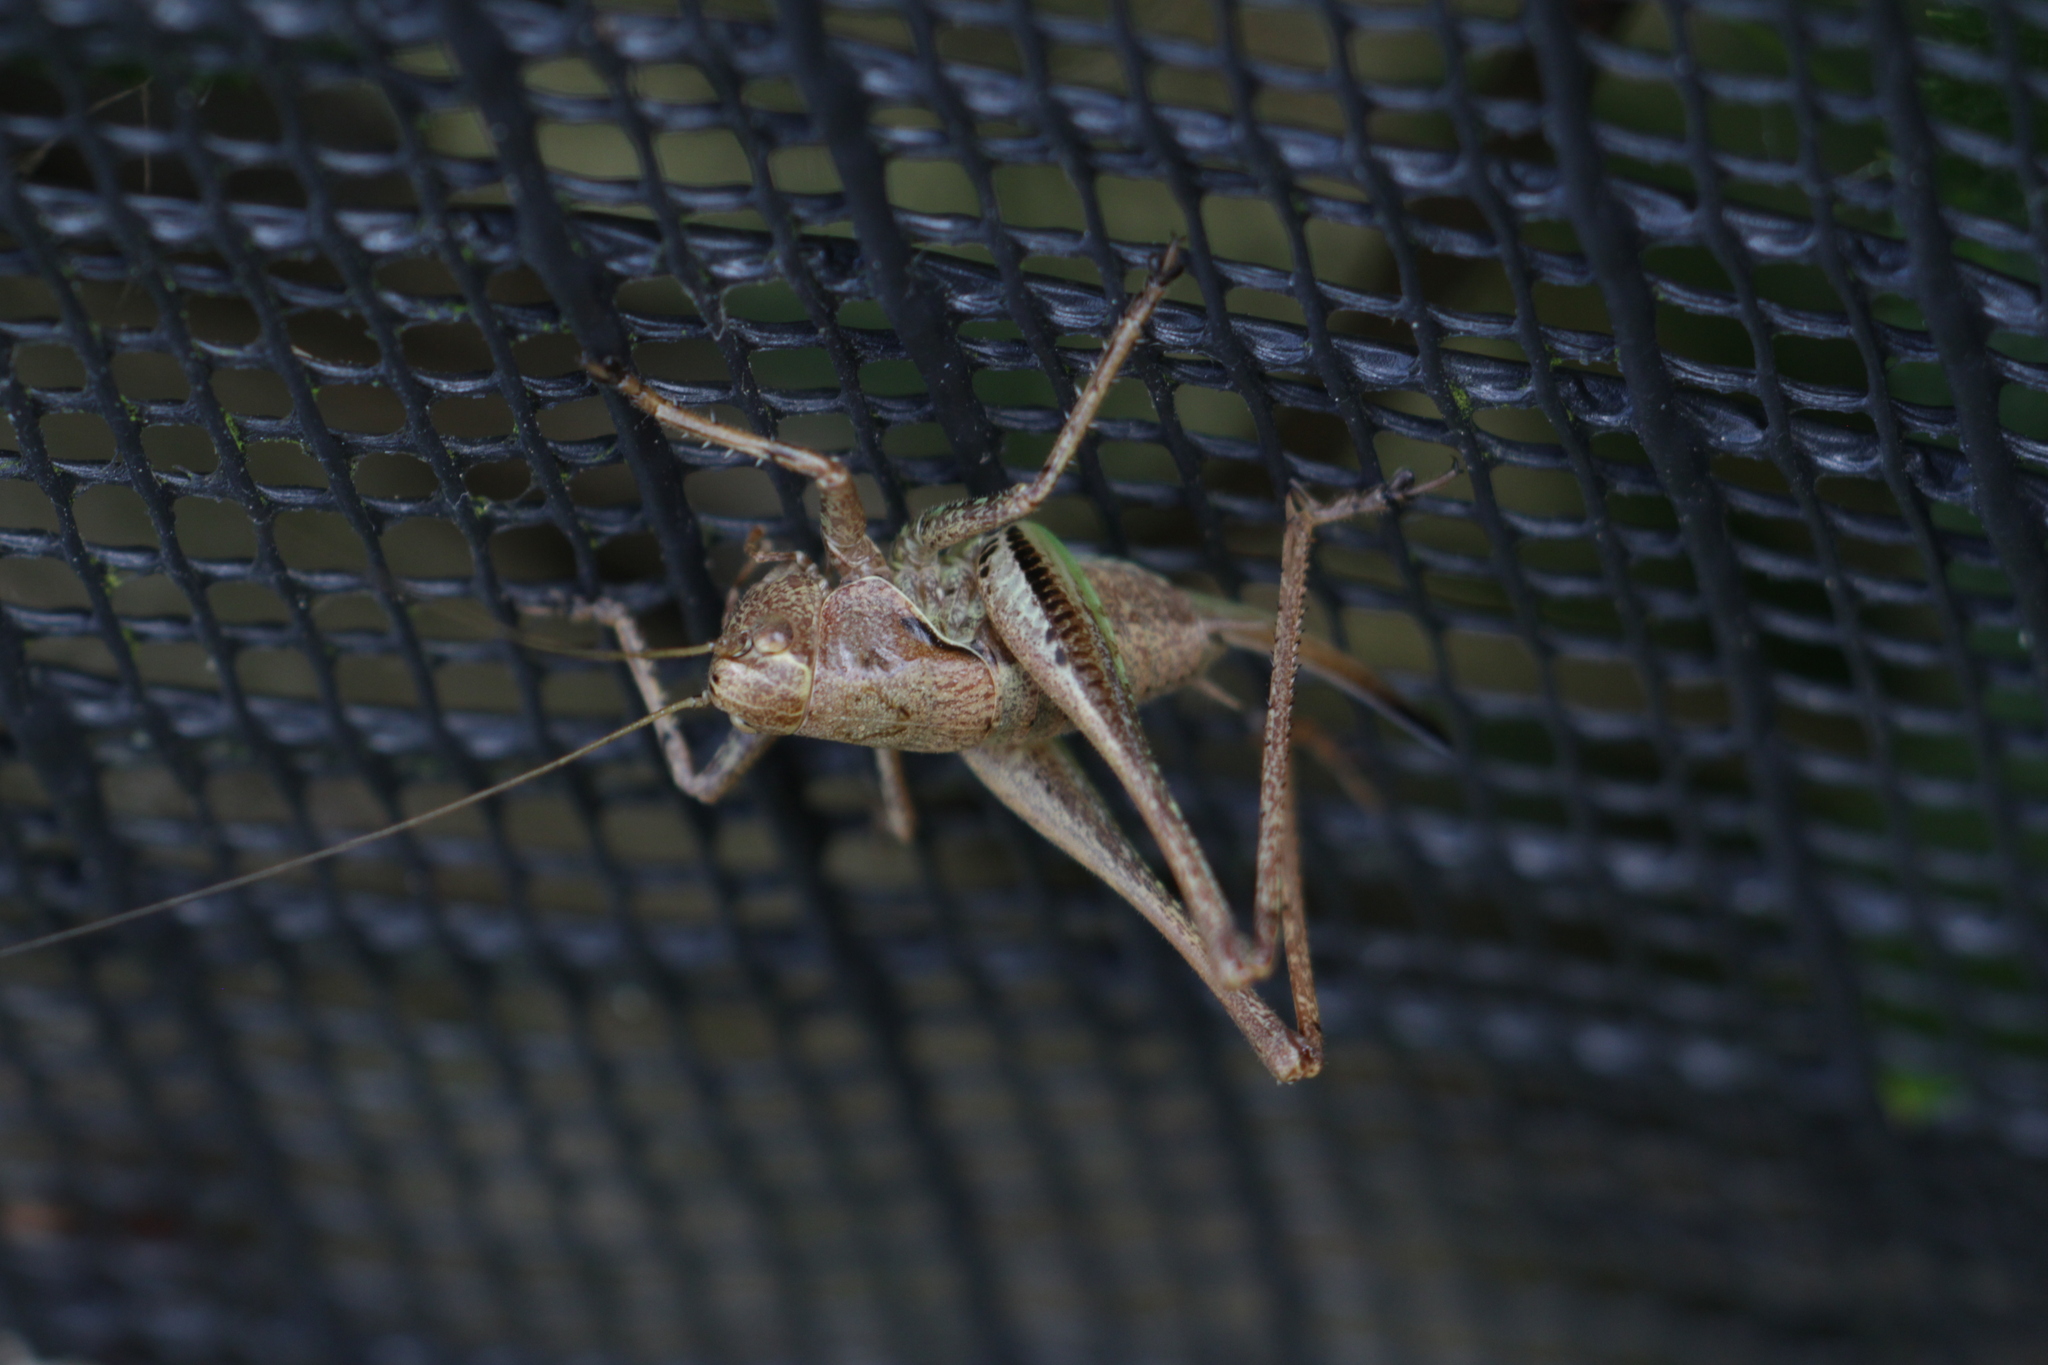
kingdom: Animalia
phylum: Arthropoda
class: Insecta
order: Orthoptera
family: Tettigoniidae
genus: Pholidoptera
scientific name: Pholidoptera griseoaptera
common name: Dark bush-cricket
